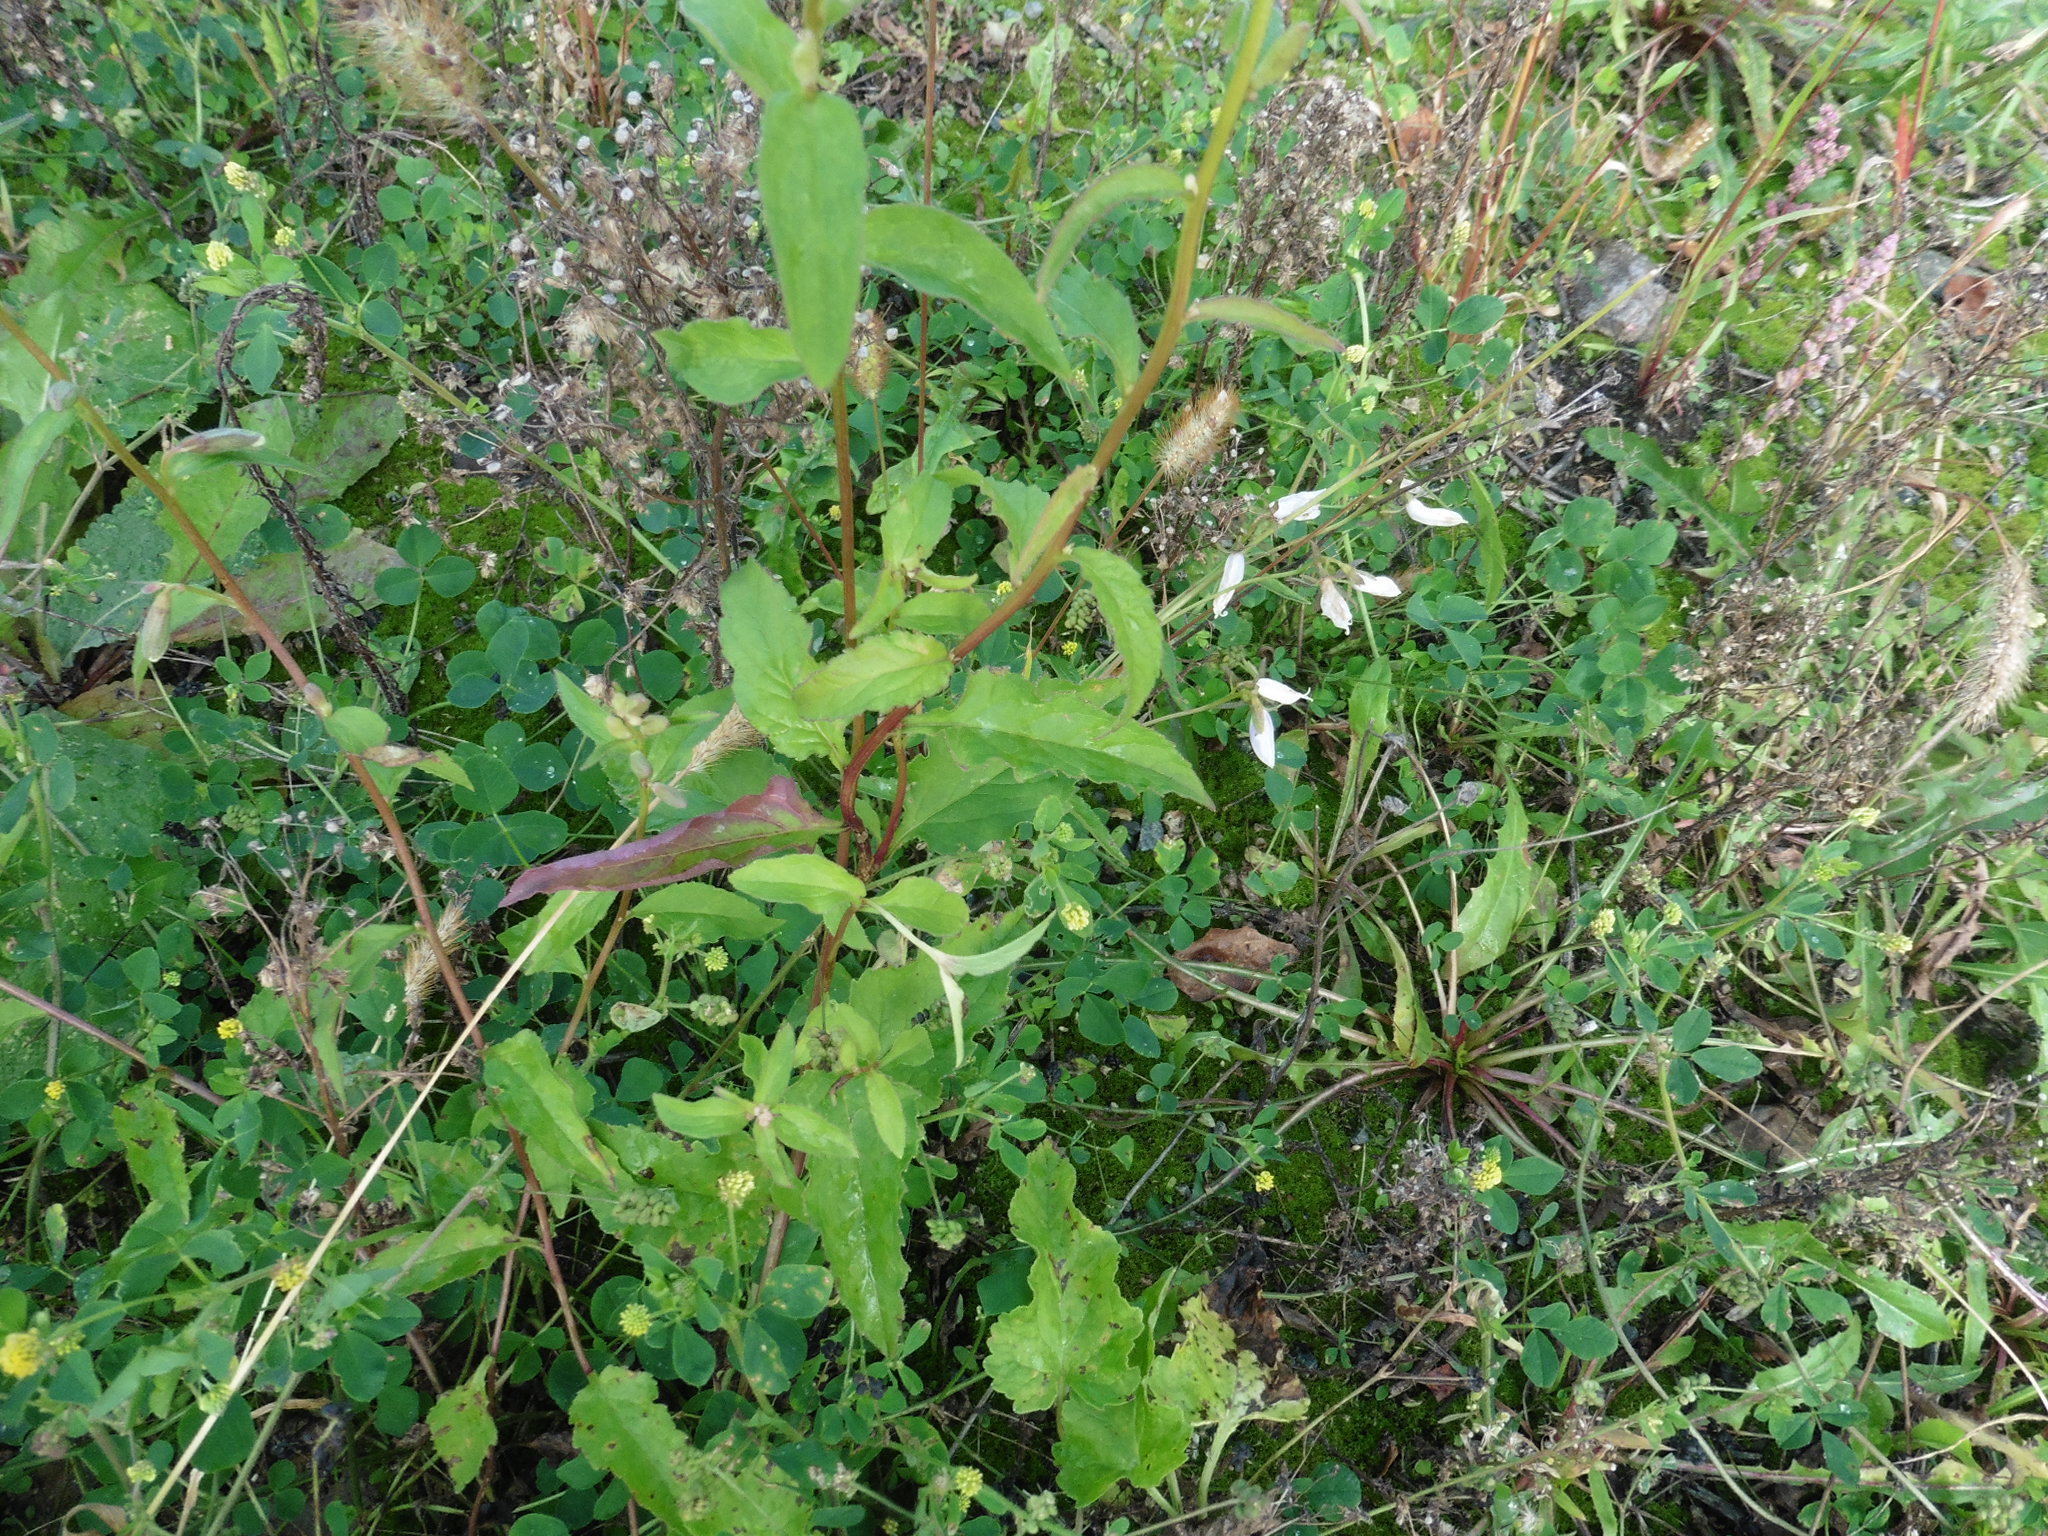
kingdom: Plantae
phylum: Tracheophyta
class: Magnoliopsida
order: Asterales
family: Campanulaceae
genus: Campanula
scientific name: Campanula rapunculoides
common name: Creeping bellflower
